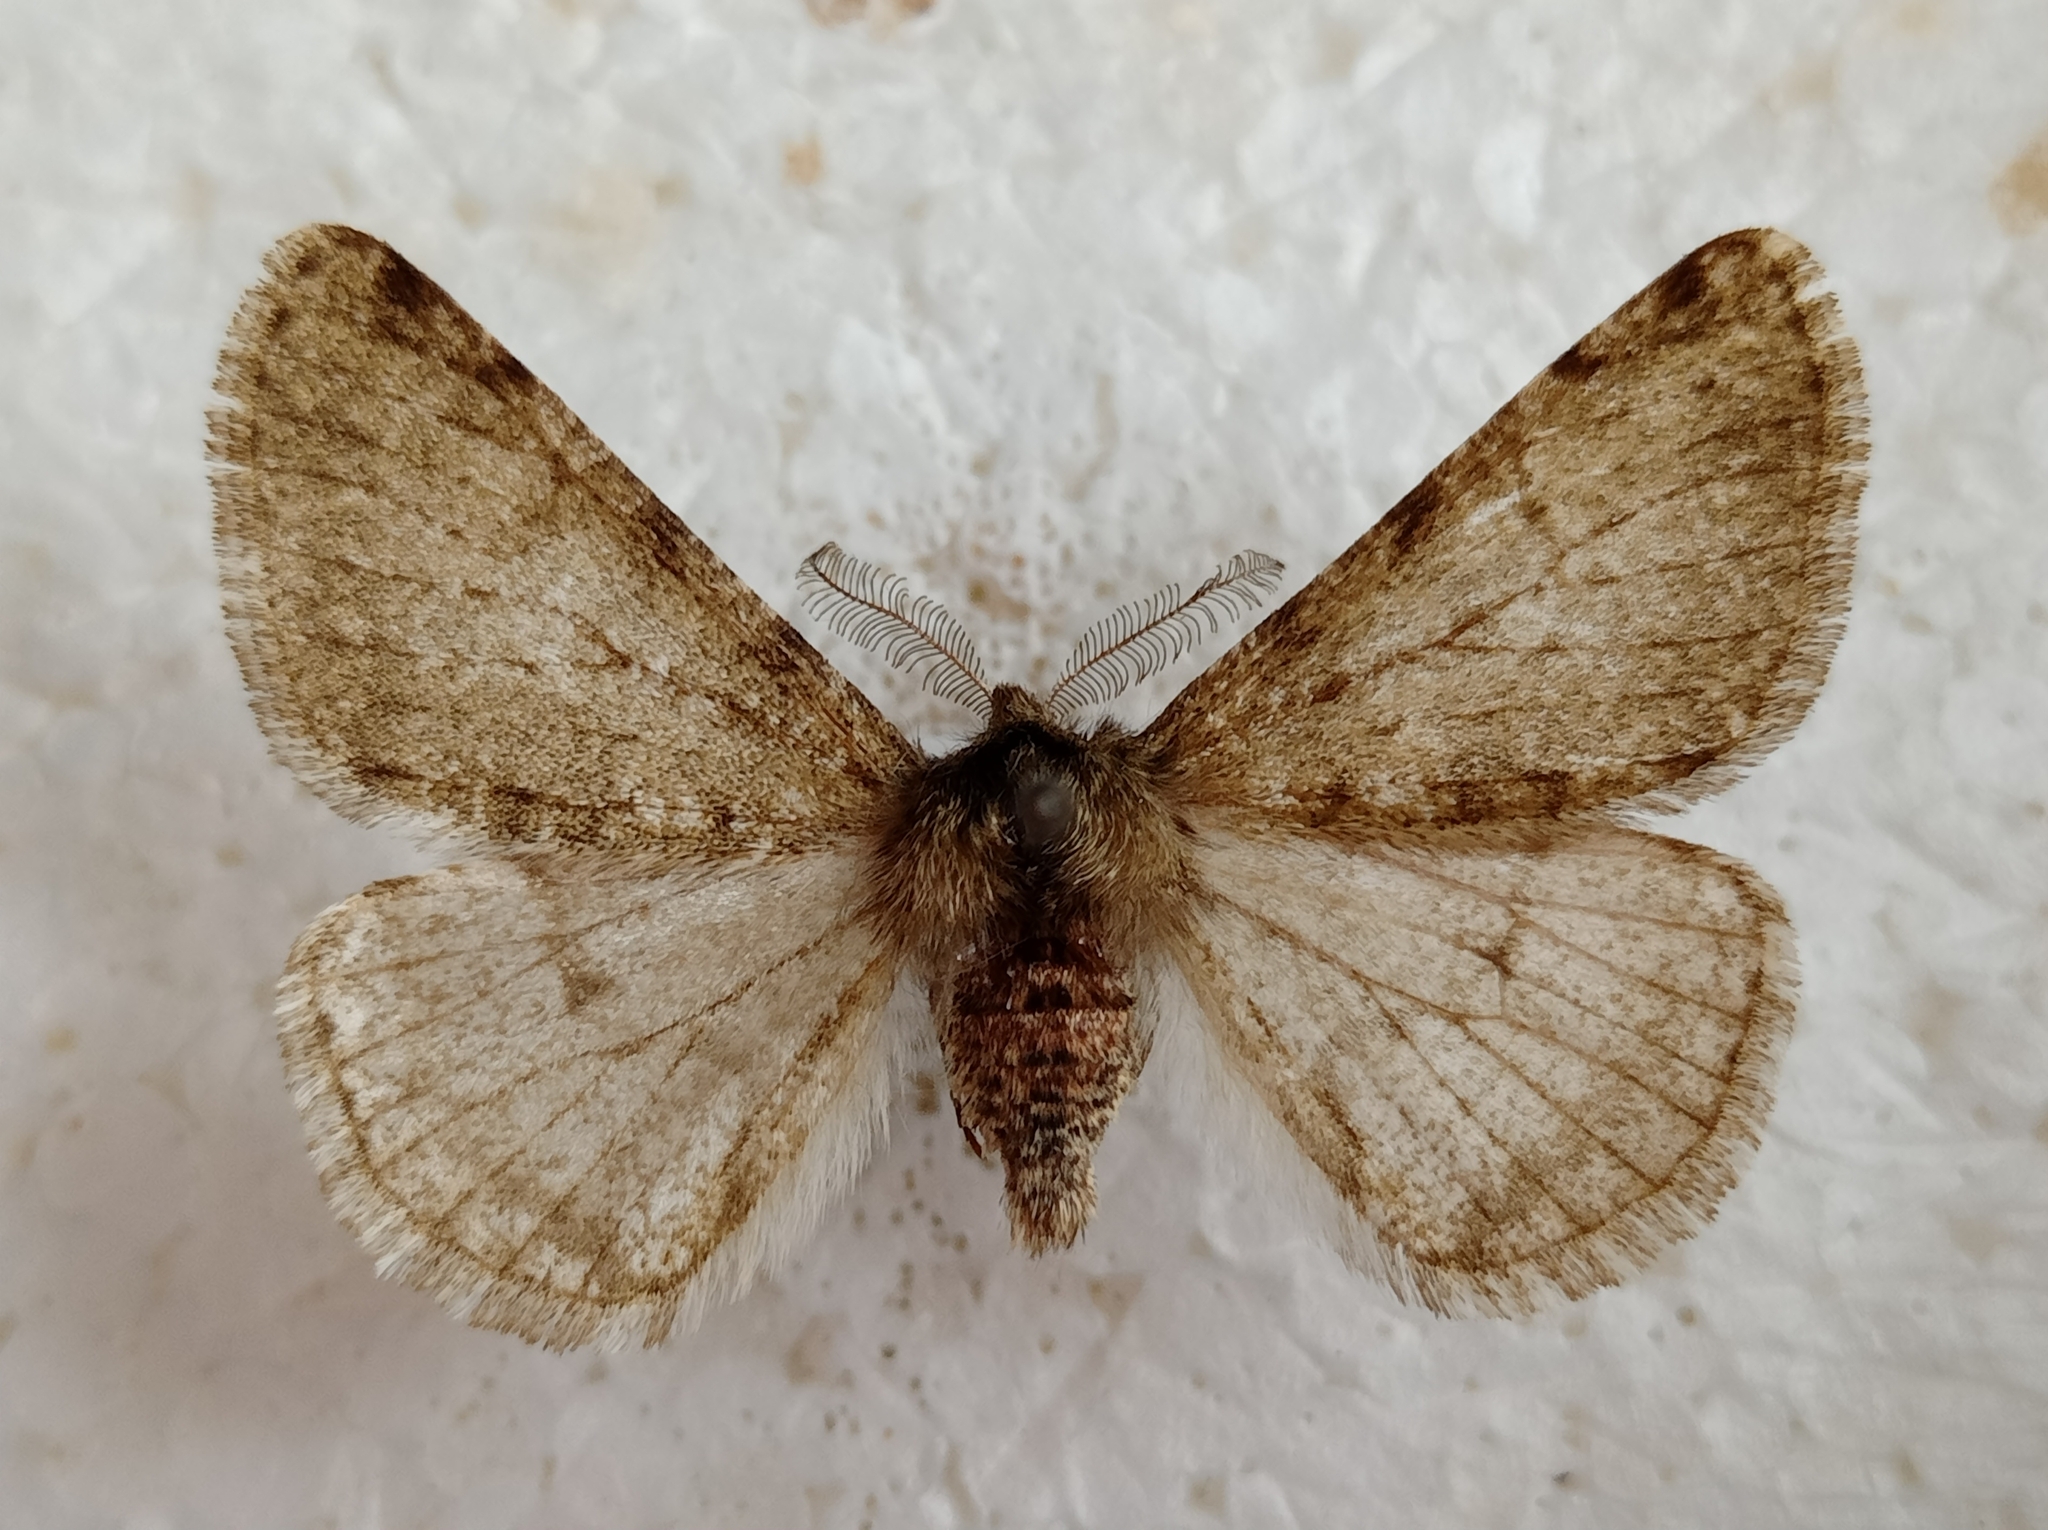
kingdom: Animalia
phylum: Arthropoda
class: Insecta
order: Lepidoptera
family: Geometridae
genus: Phigalia
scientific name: Phigalia pilosaria
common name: Pale brindled beauty
